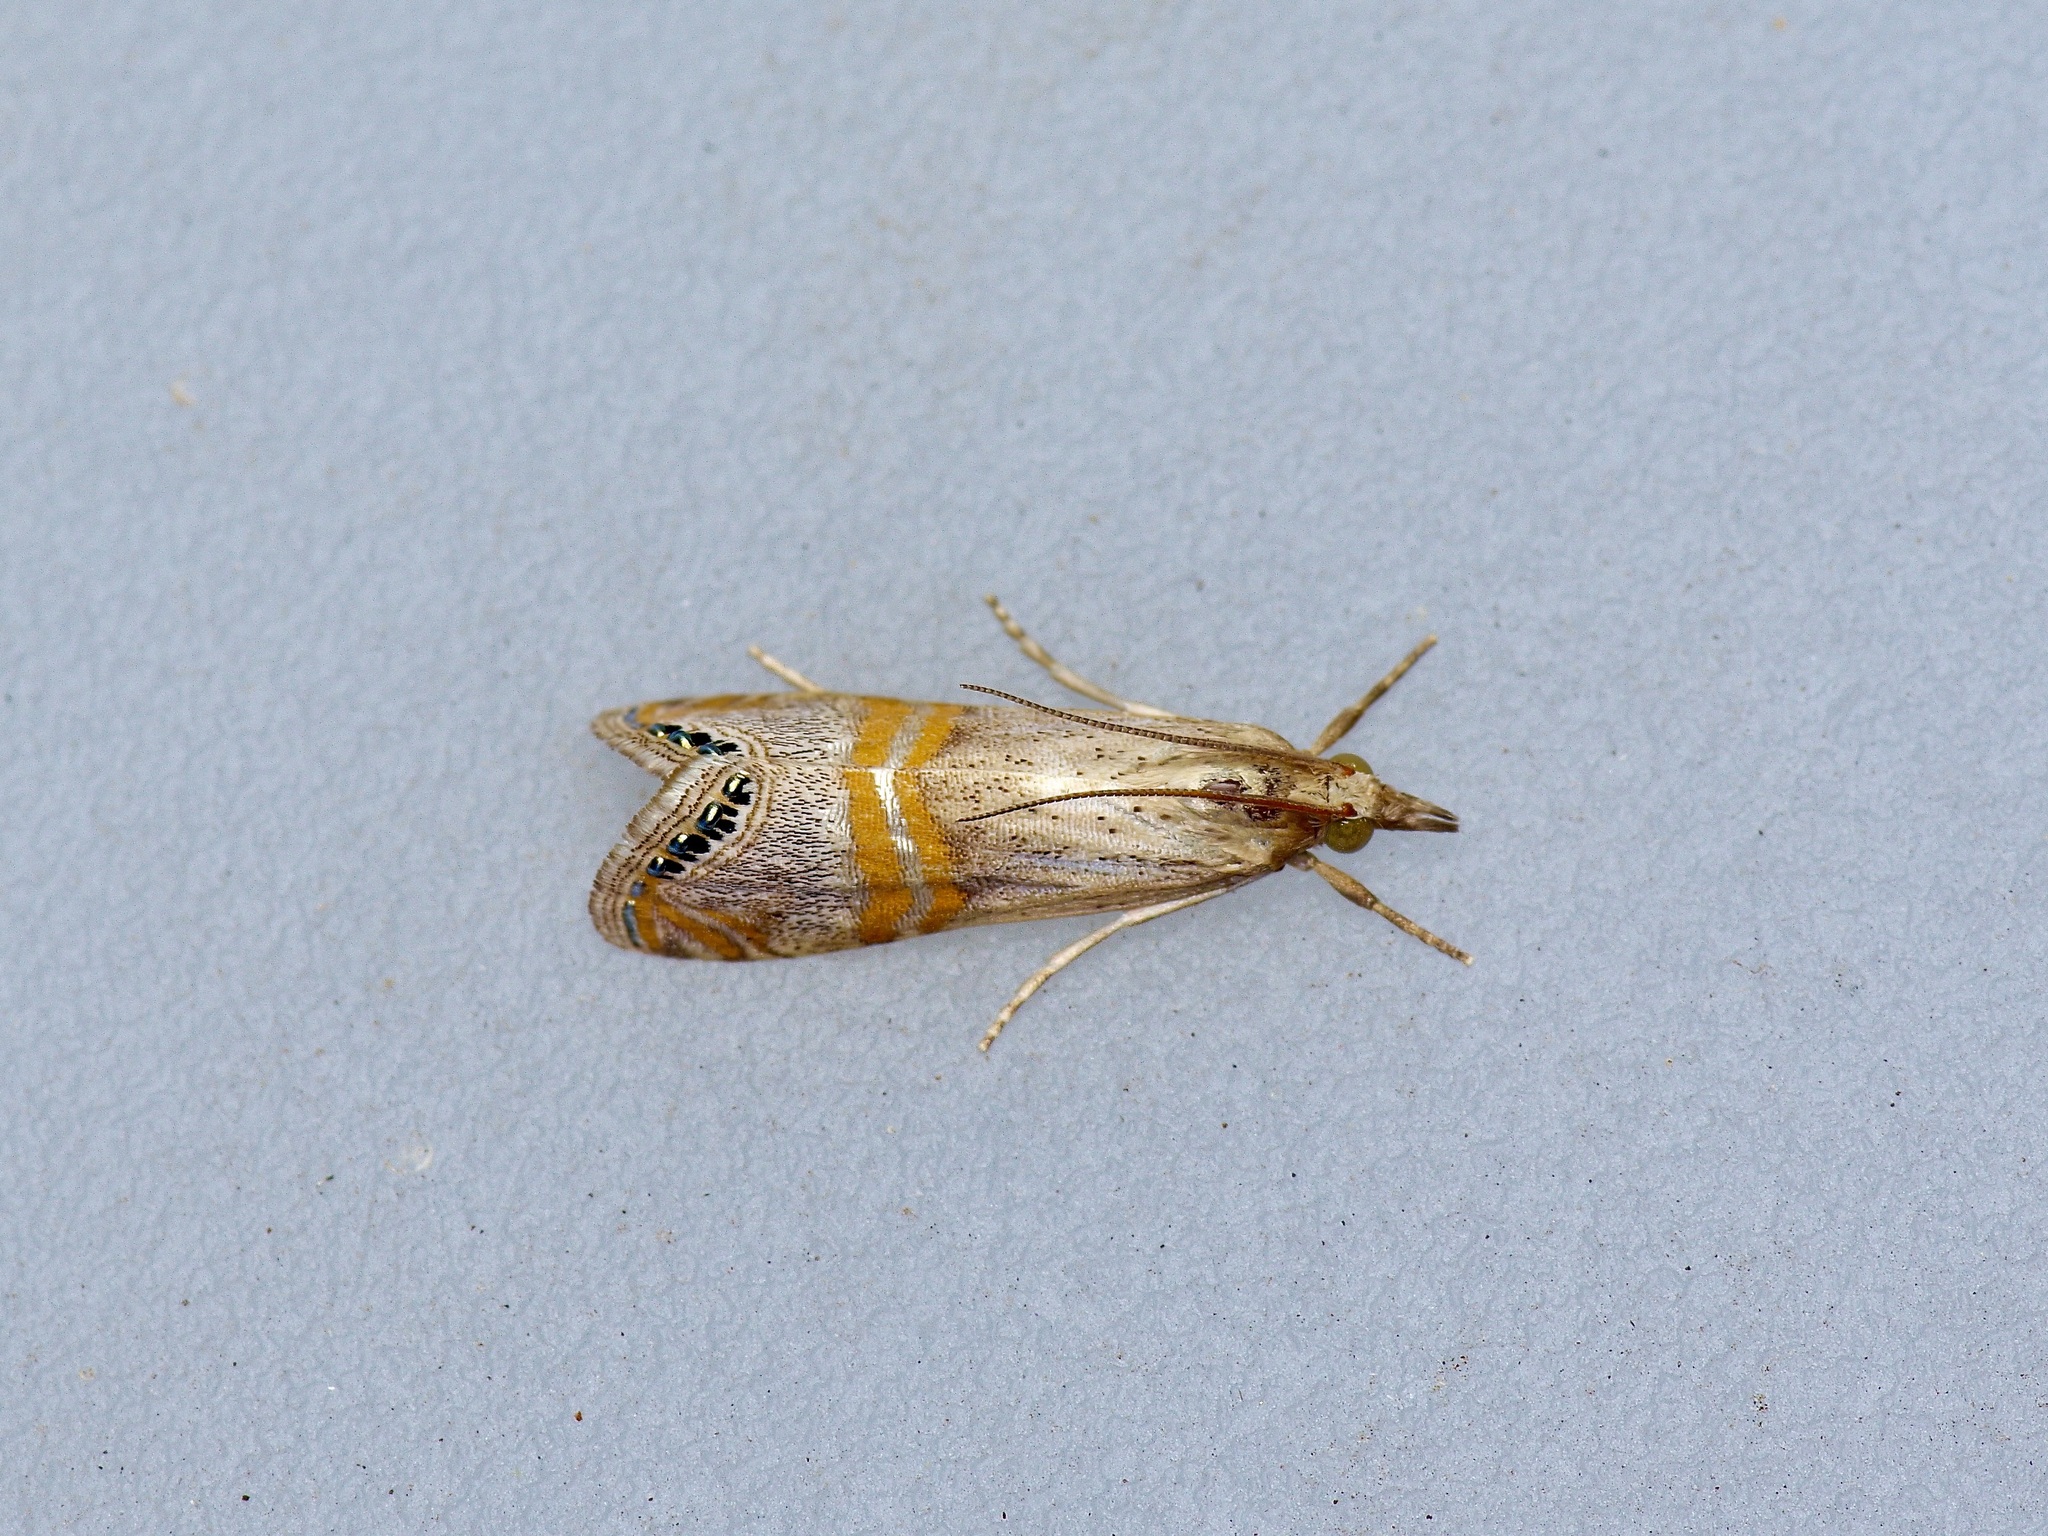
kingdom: Animalia
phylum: Arthropoda
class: Insecta
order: Lepidoptera
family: Crambidae
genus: Euchromius
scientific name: Euchromius ocellea
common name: Necklace veneer moth
